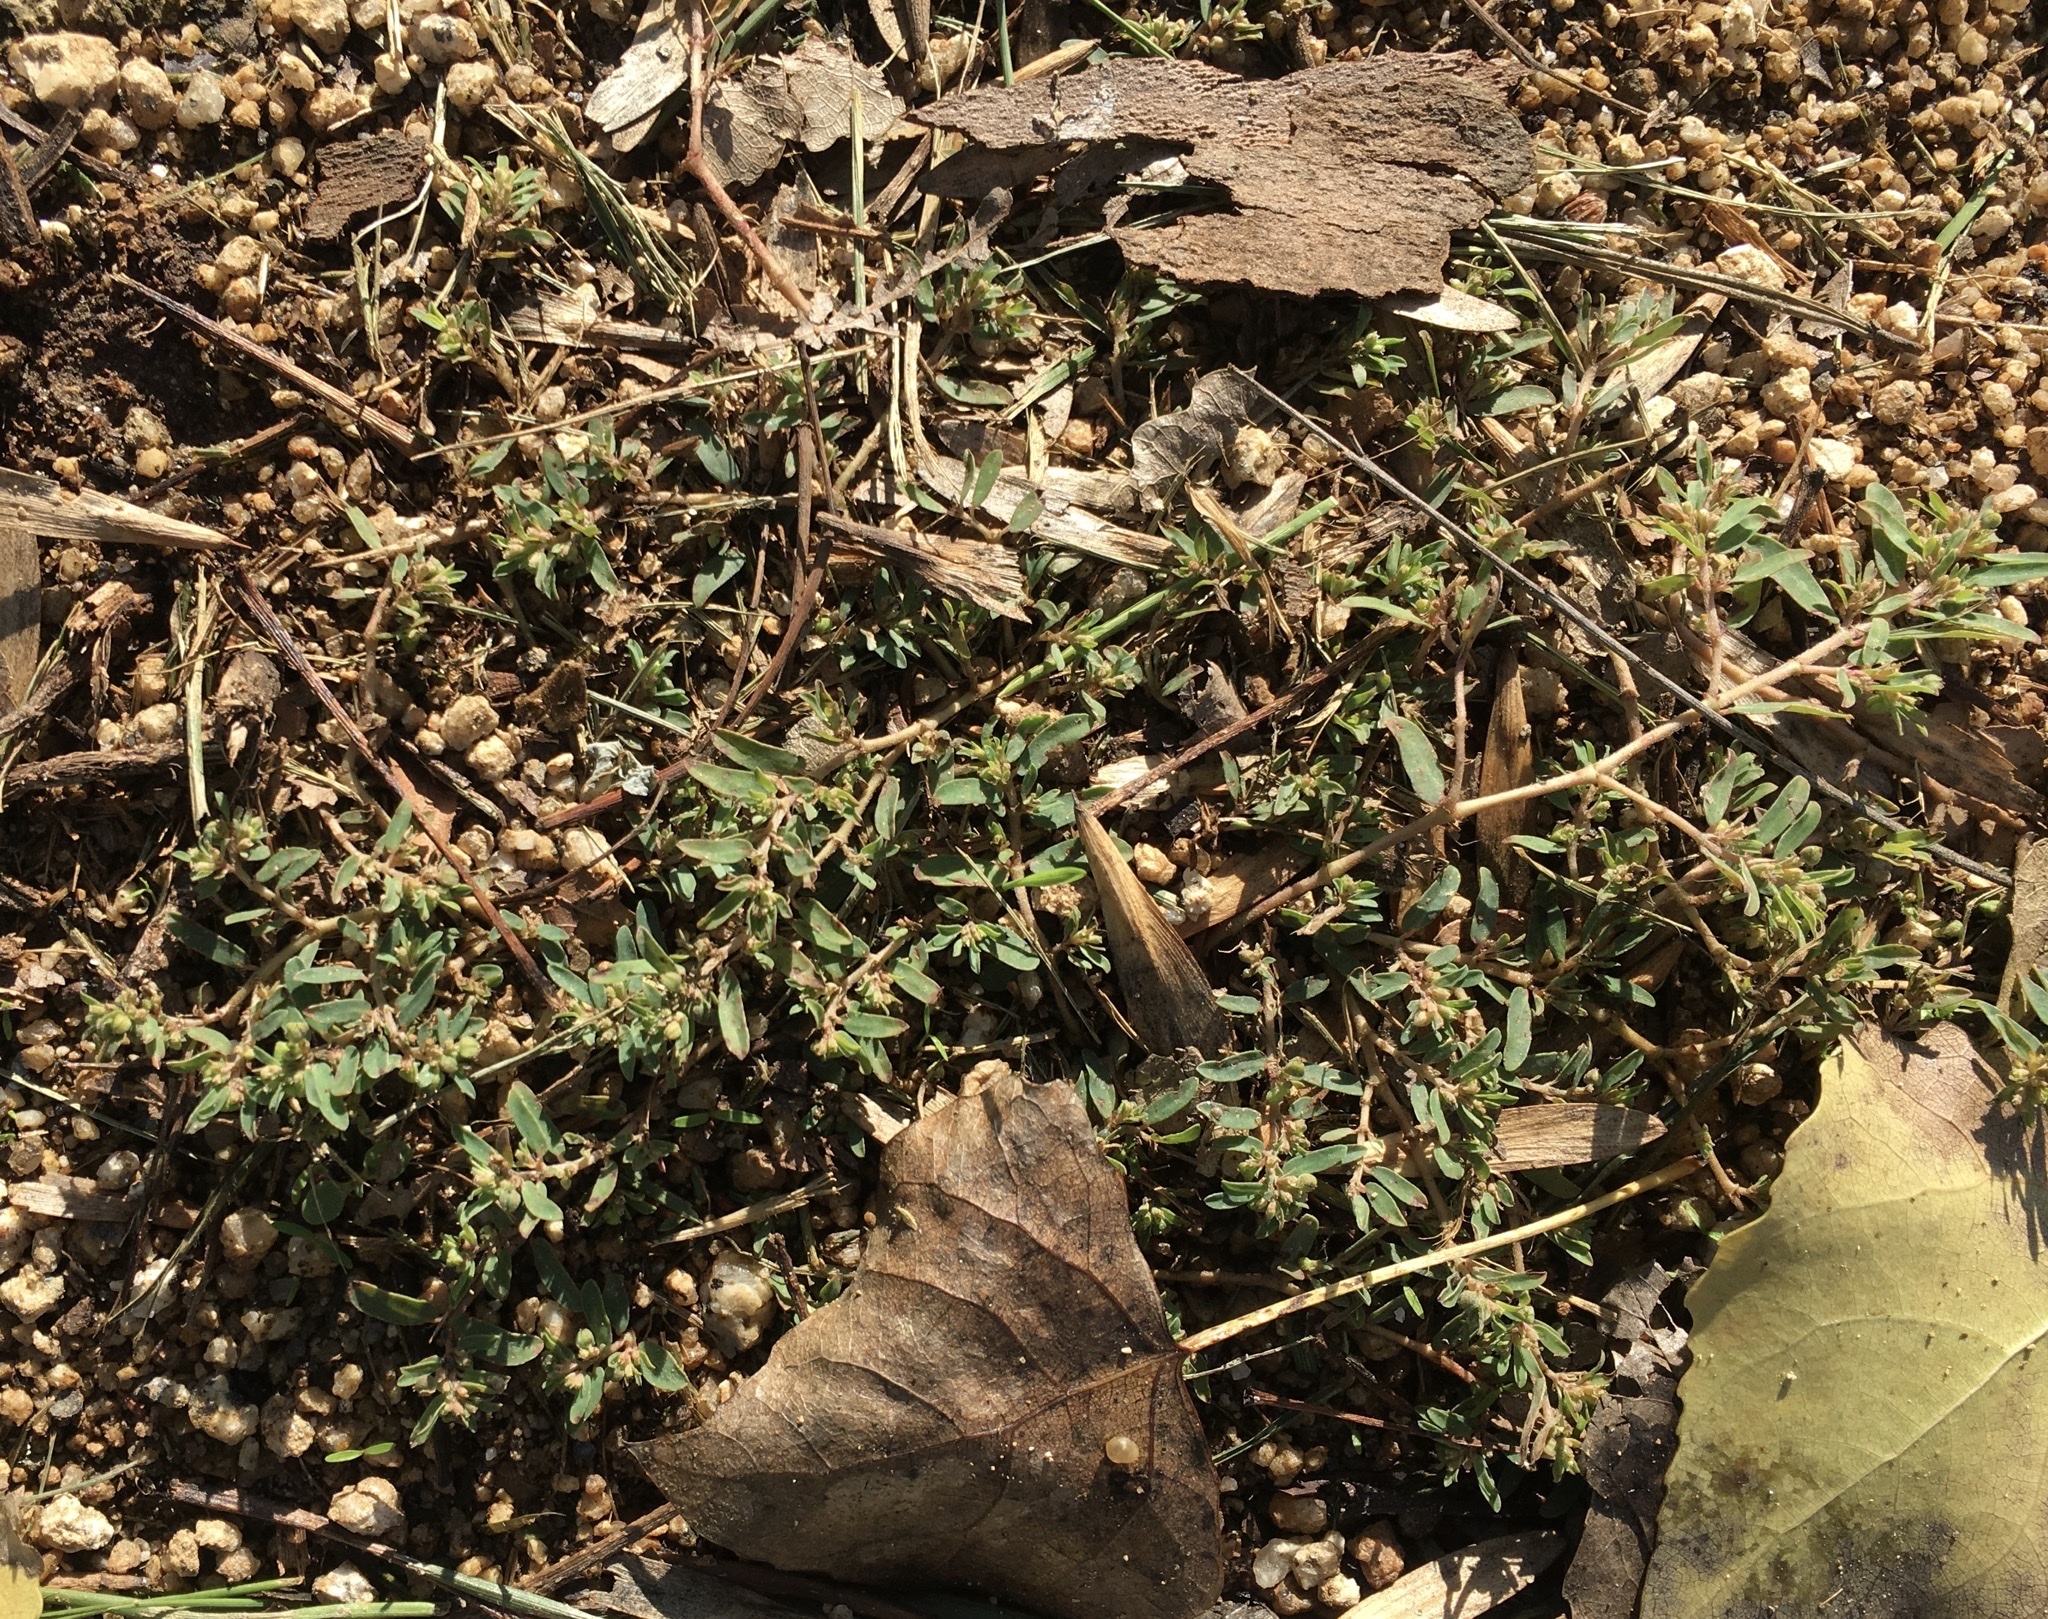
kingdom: Plantae
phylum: Tracheophyta
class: Magnoliopsida
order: Malpighiales
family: Euphorbiaceae
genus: Euphorbia
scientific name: Euphorbia maculata
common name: Spotted spurge
